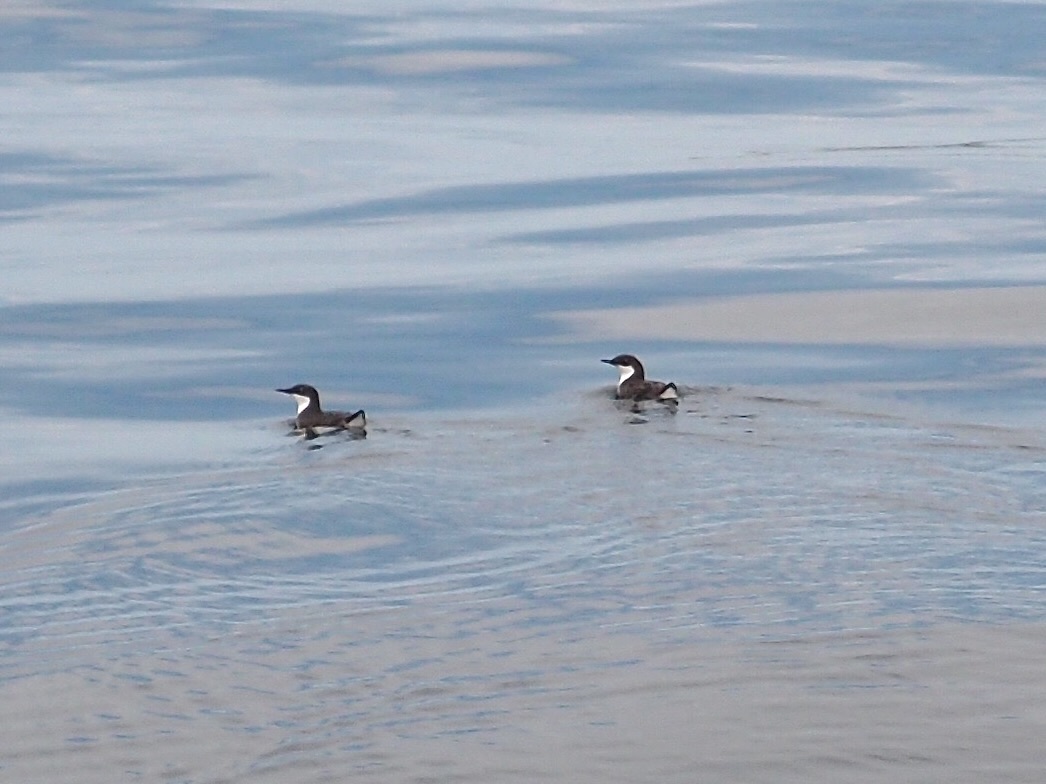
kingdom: Animalia
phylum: Chordata
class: Aves
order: Charadriiformes
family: Alcidae
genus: Synthliboramphus
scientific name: Synthliboramphus craveri
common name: Craveri's murrelet
